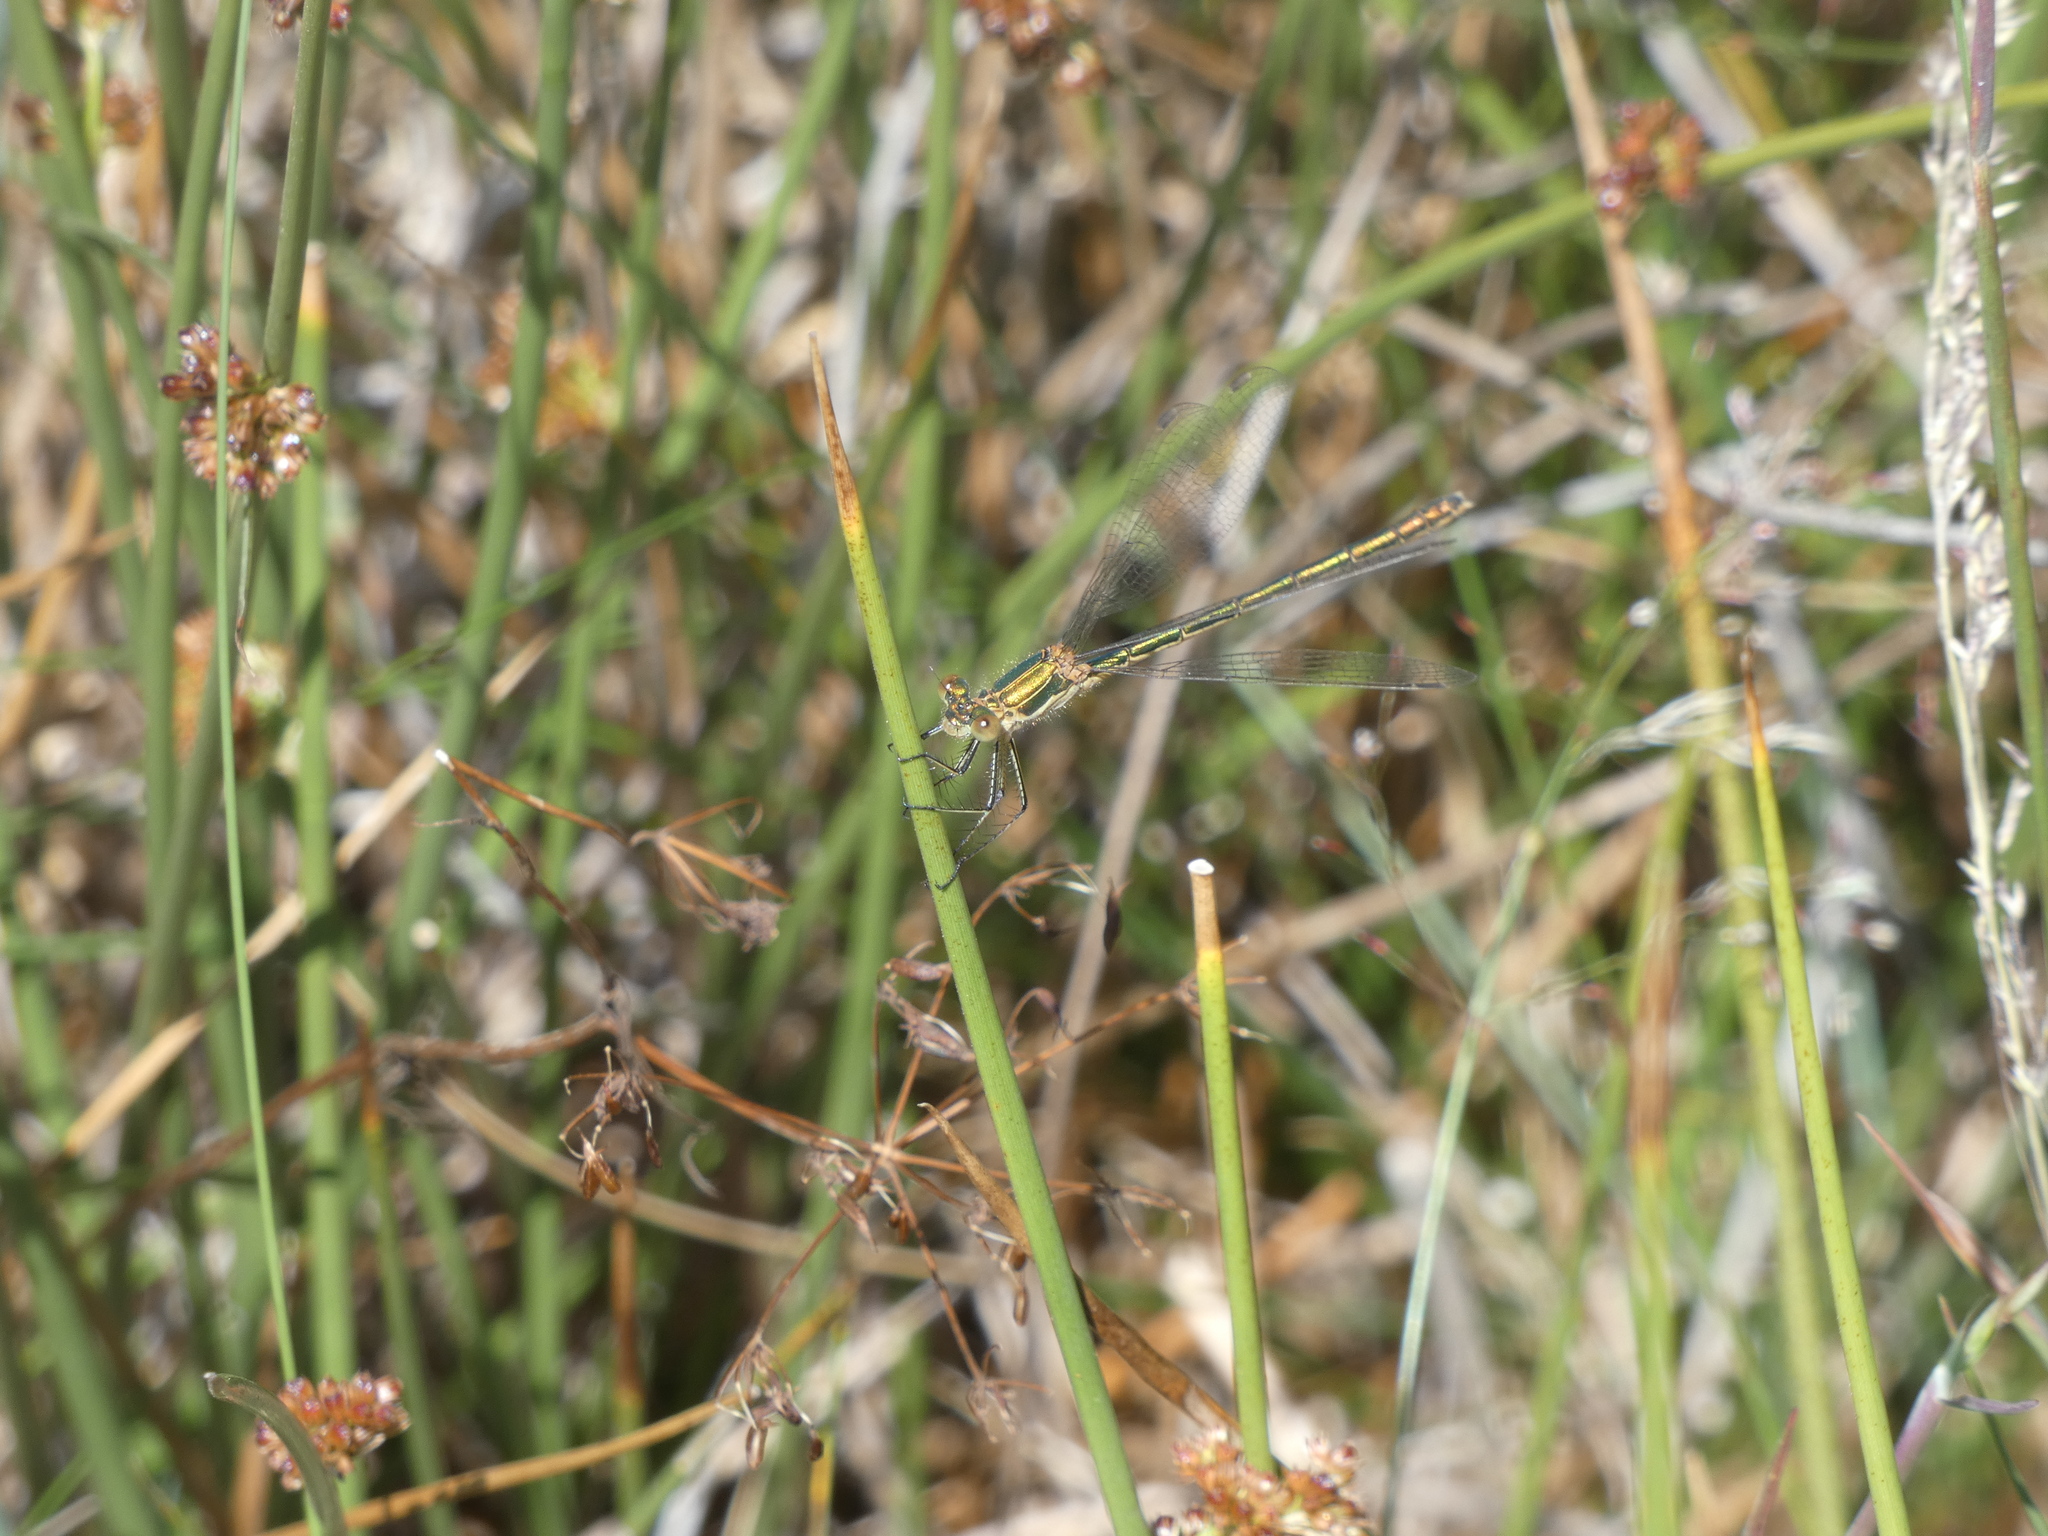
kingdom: Animalia
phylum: Arthropoda
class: Insecta
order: Odonata
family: Lestidae
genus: Lestes
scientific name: Lestes virens
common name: Small emerald spreadwing
